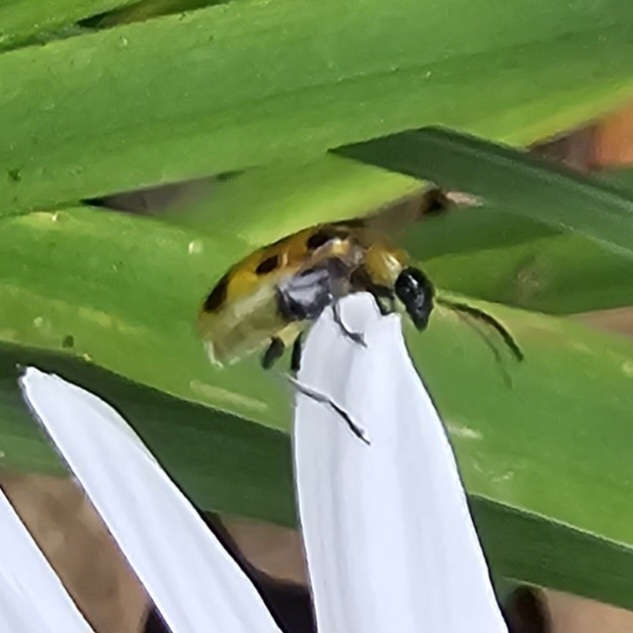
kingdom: Animalia
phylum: Arthropoda
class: Insecta
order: Coleoptera
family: Chrysomelidae
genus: Diabrotica
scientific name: Diabrotica undecimpunctata
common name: Spotted cucumber beetle
